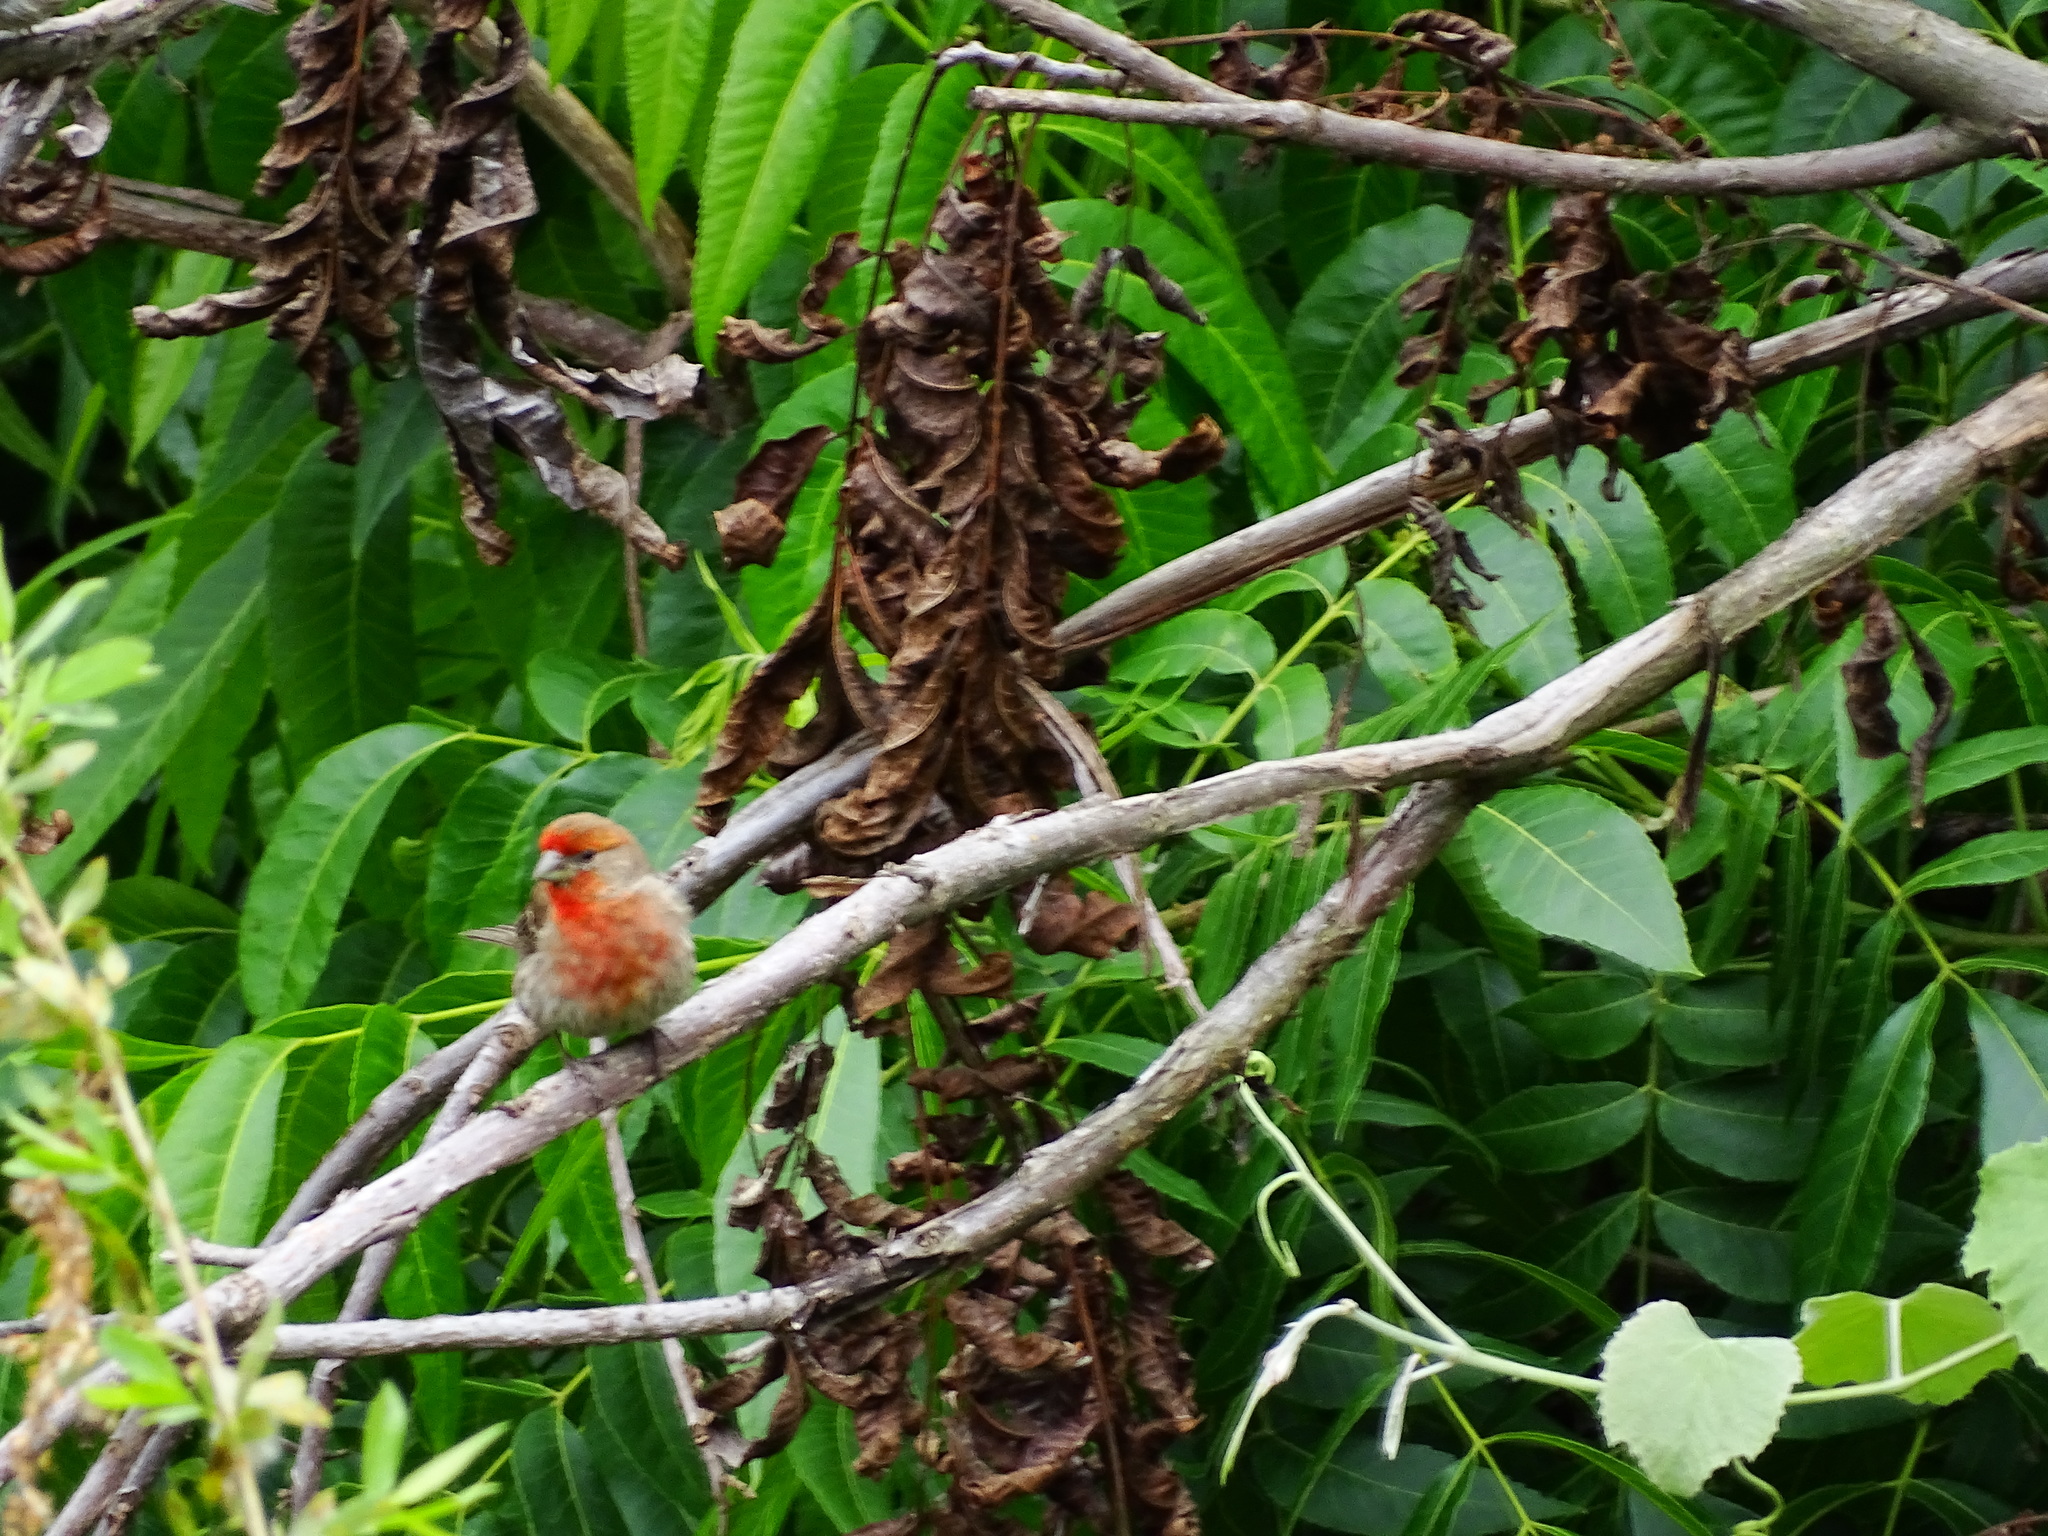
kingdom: Animalia
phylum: Chordata
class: Aves
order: Passeriformes
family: Fringillidae
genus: Haemorhous
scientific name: Haemorhous mexicanus
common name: House finch
